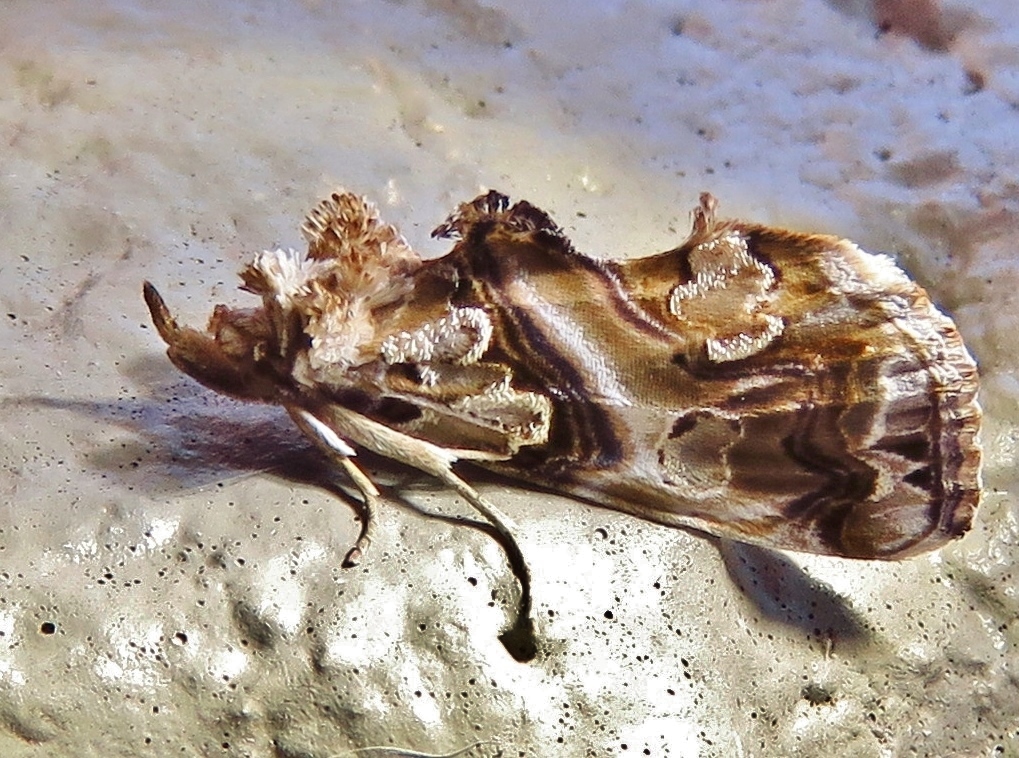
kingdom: Animalia
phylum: Arthropoda
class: Insecta
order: Lepidoptera
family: Erebidae
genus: Plusiodonta
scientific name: Plusiodonta compressipalpis
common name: Moonseed moth
